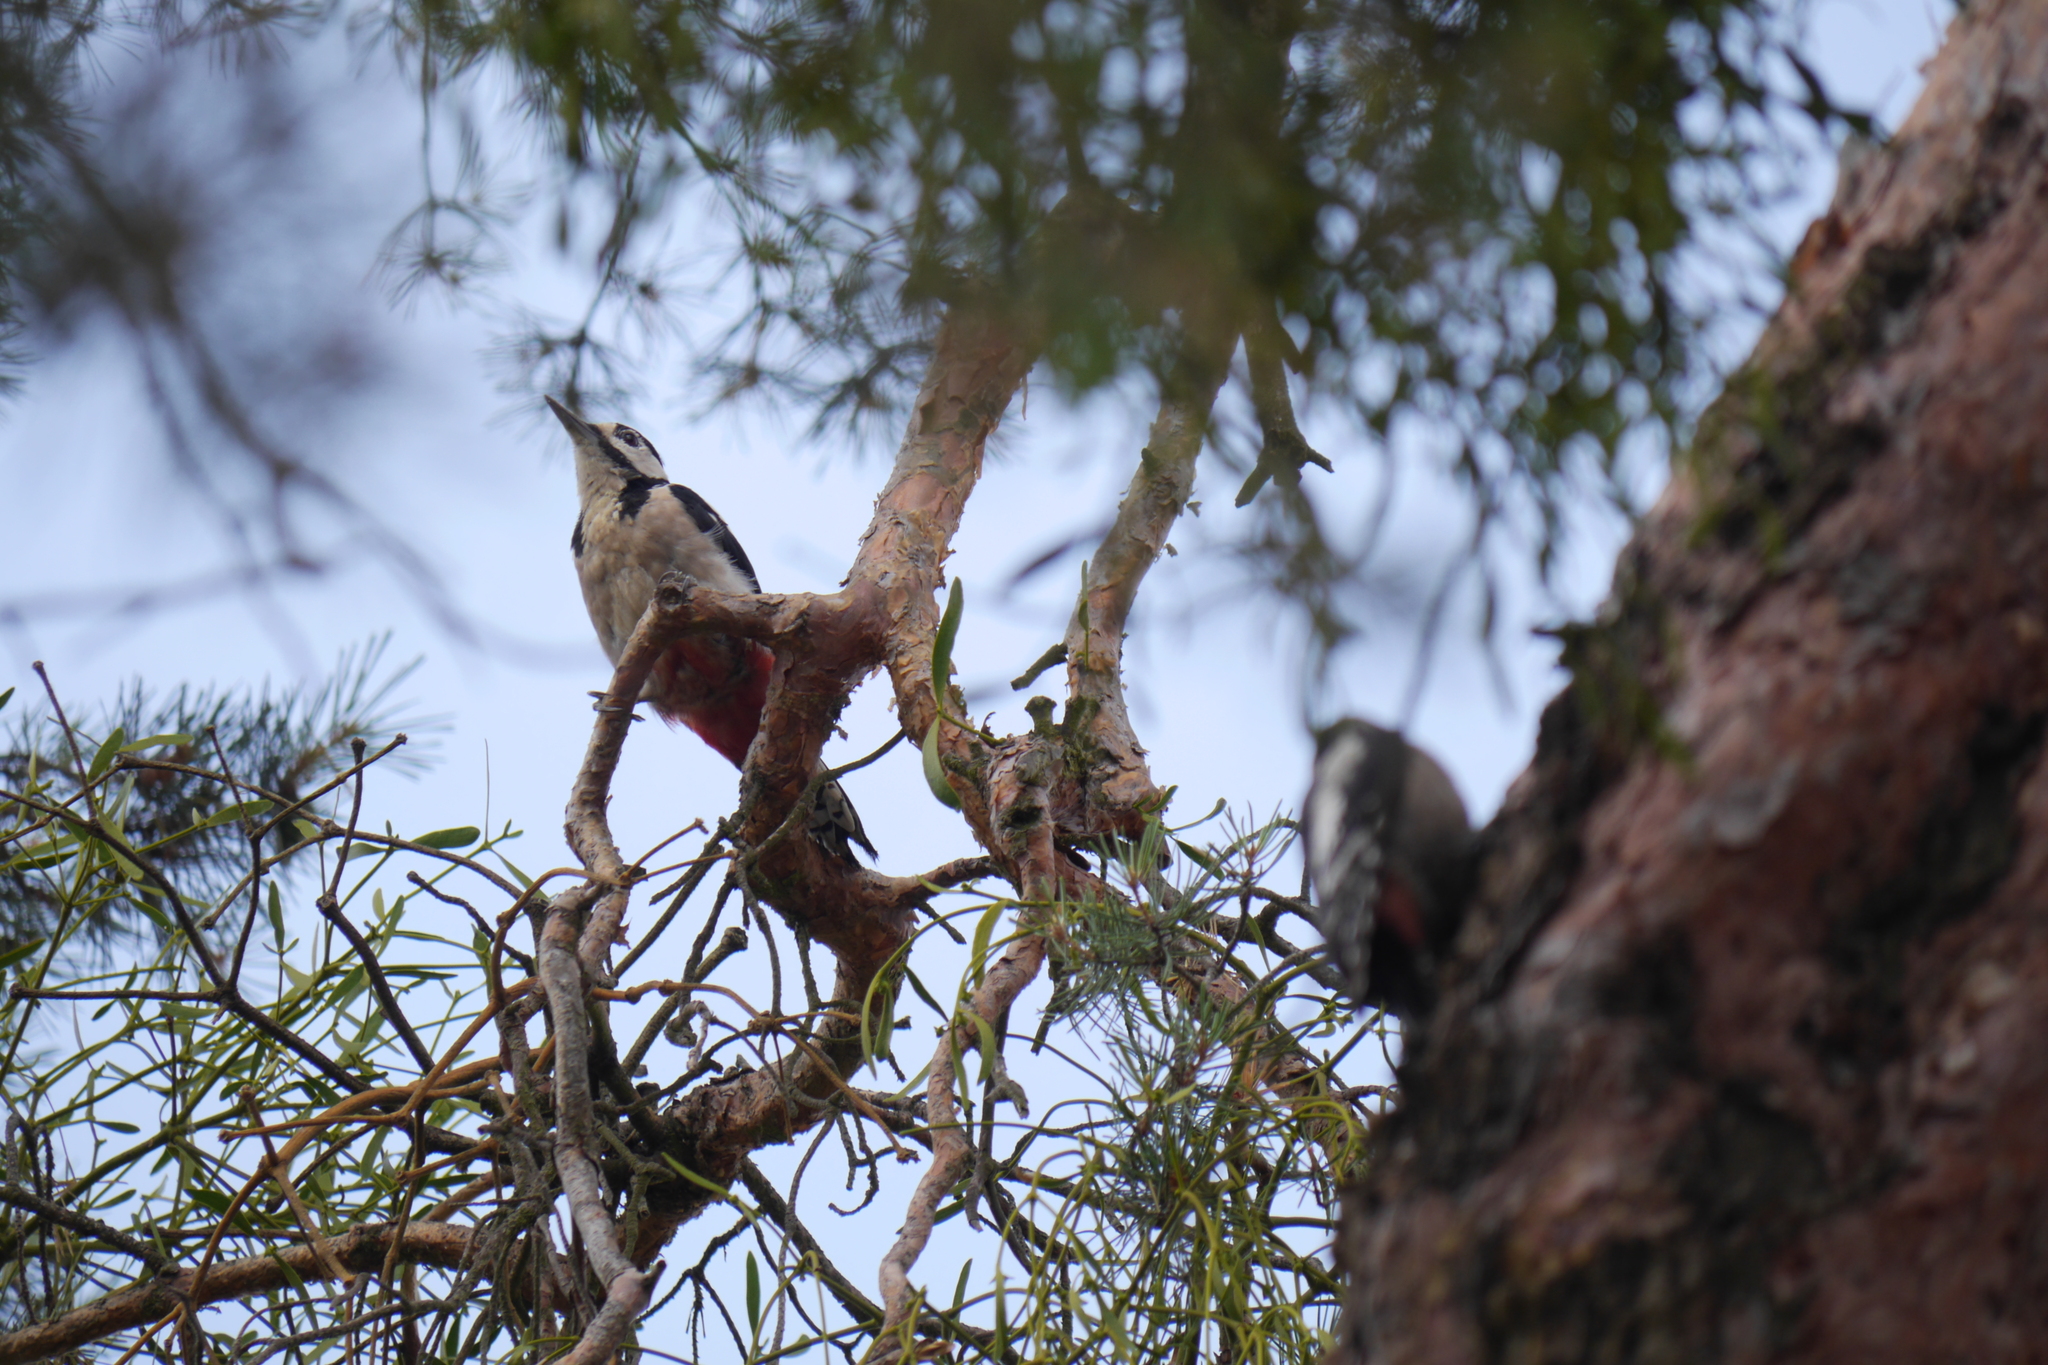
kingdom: Animalia
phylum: Chordata
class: Aves
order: Piciformes
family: Picidae
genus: Dendrocopos
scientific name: Dendrocopos major
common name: Great spotted woodpecker
